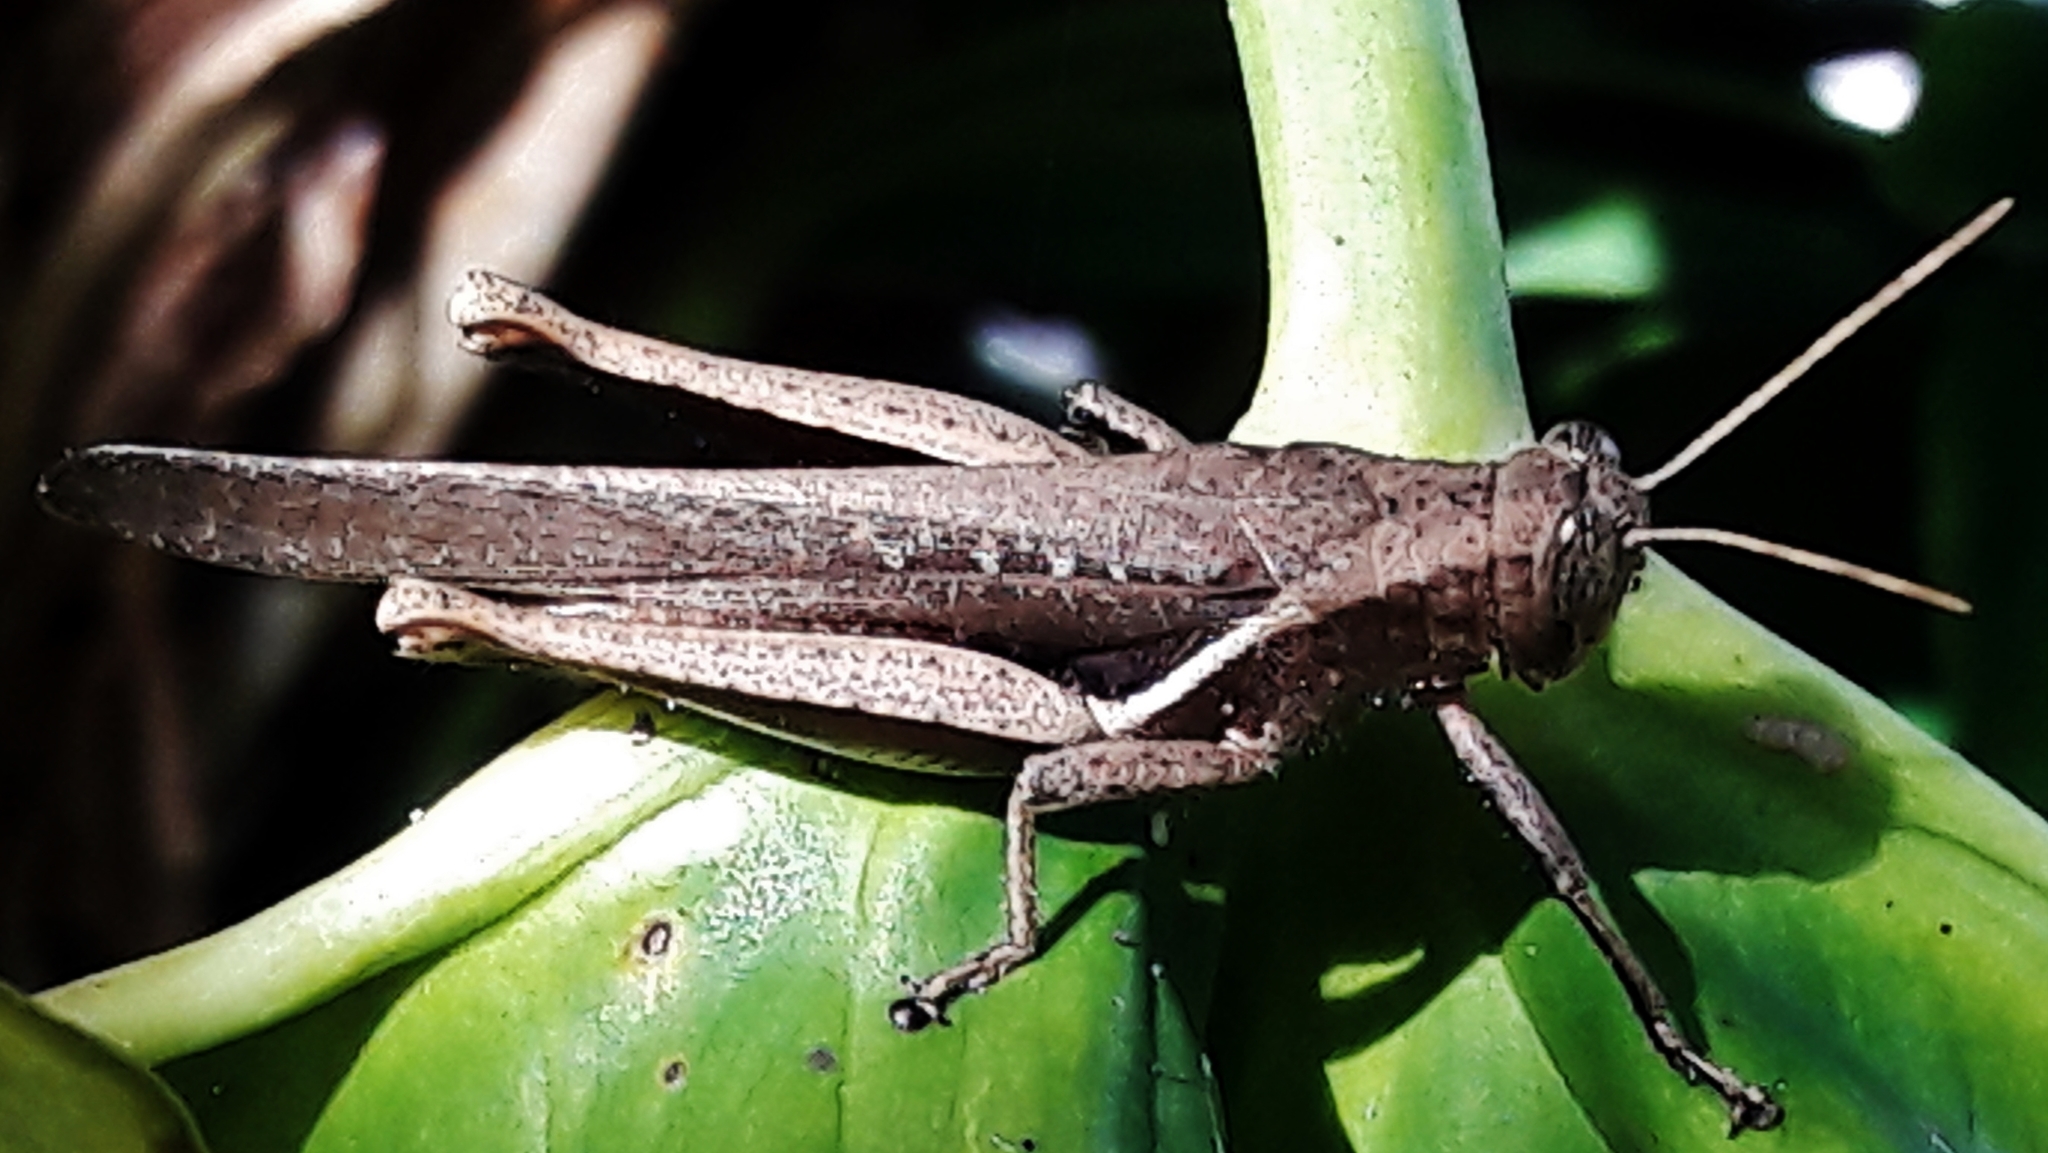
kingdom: Animalia
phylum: Arthropoda
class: Insecta
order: Orthoptera
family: Acrididae
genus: Abracris
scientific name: Abracris flavolineata
